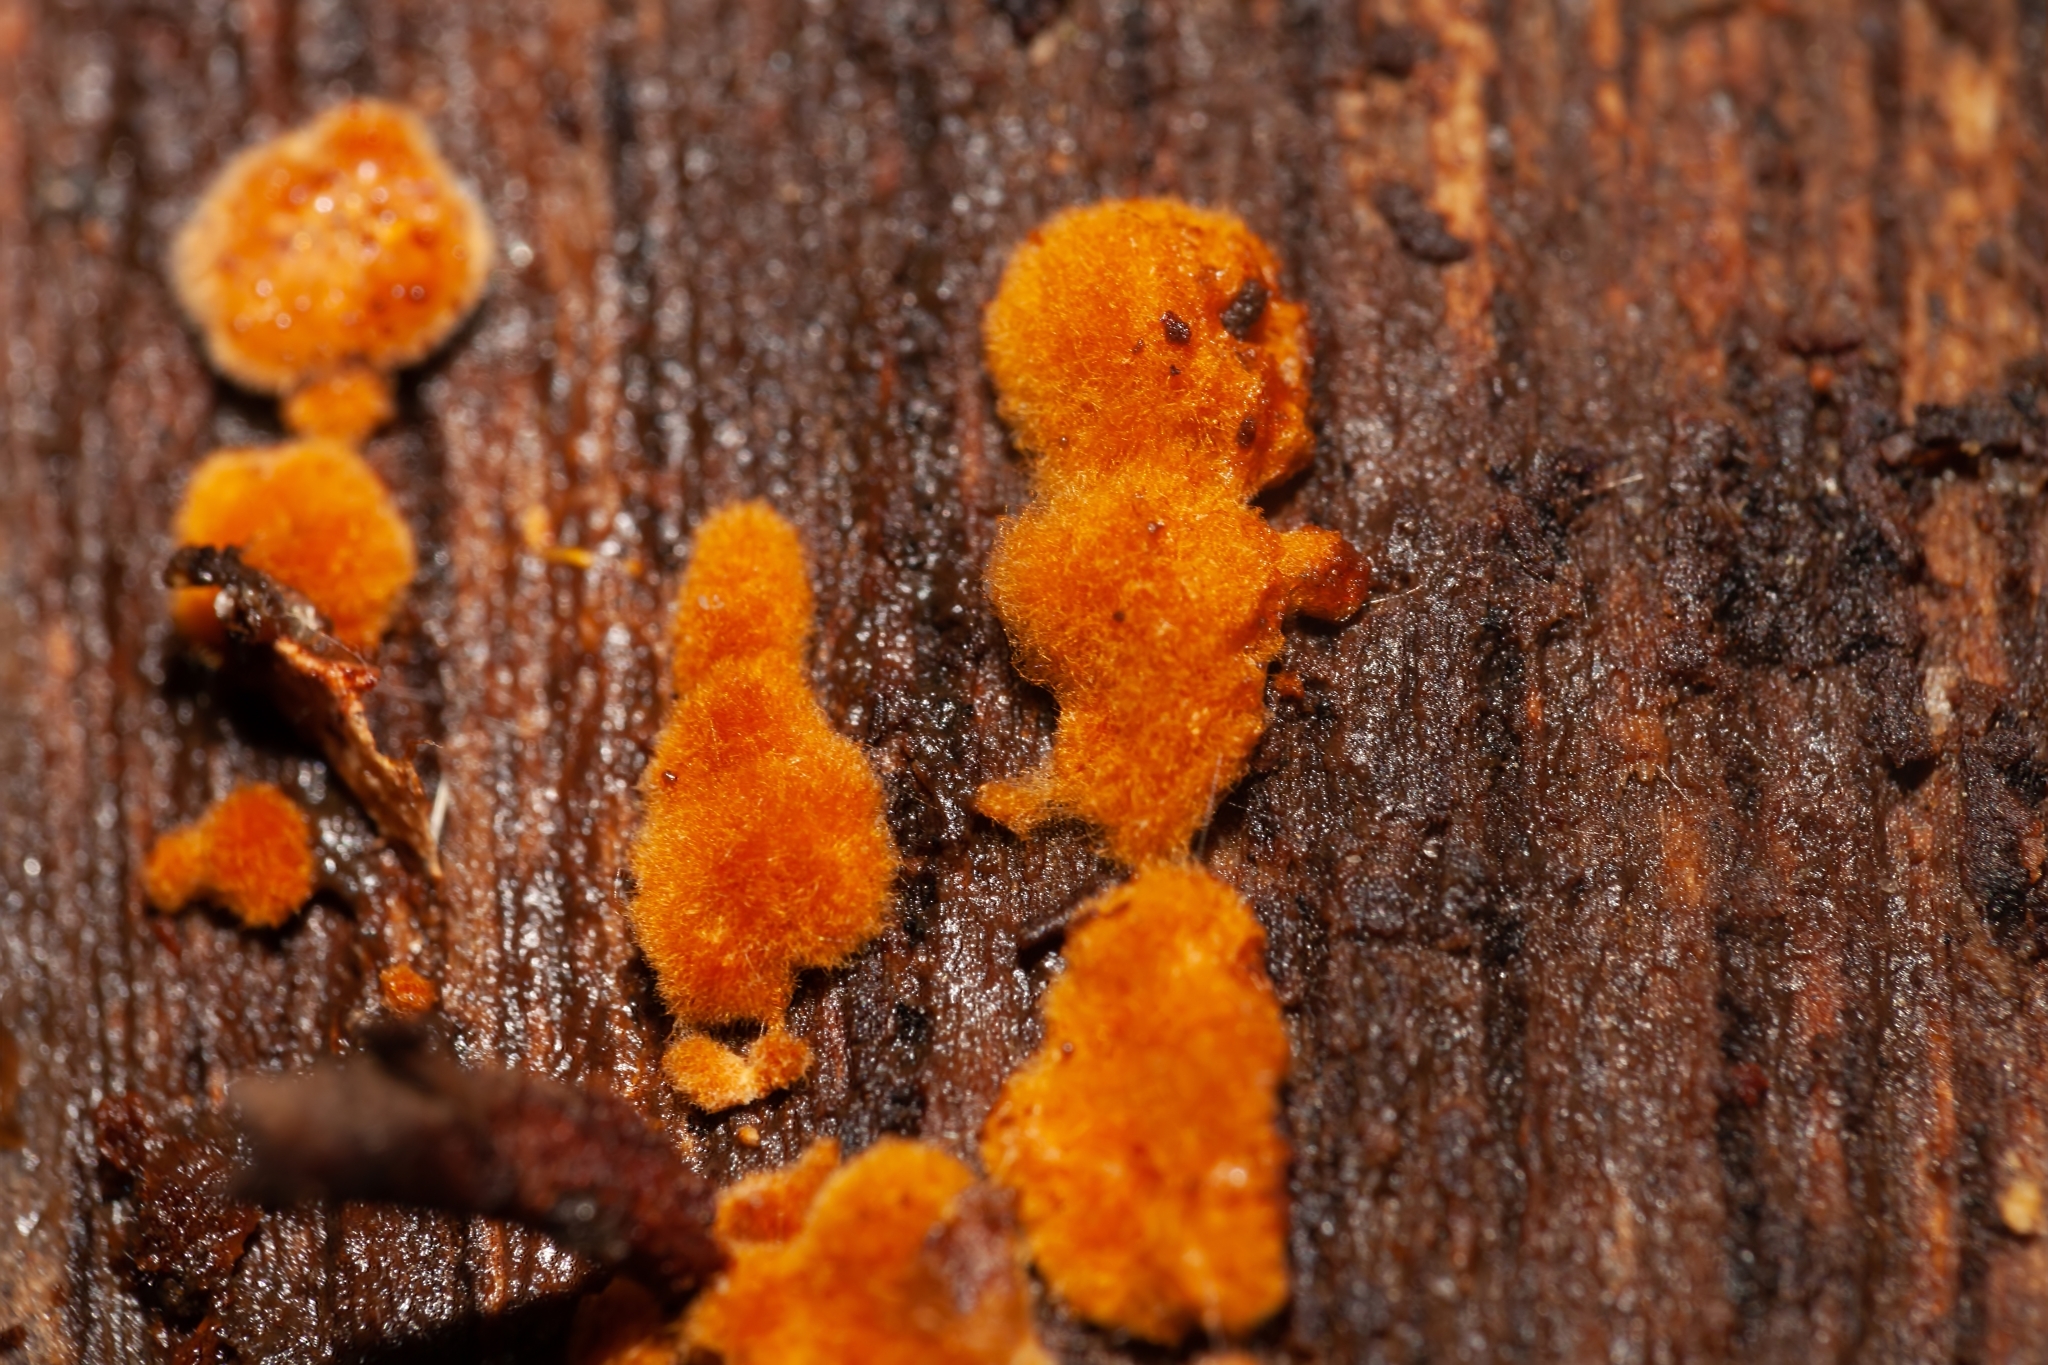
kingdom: Plantae
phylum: Chlorophyta
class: Ulvophyceae
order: Trentepohliales
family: Trentepohliaceae
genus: Trentepohlia
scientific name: Trentepohlia aurea
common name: Orange rock hair
